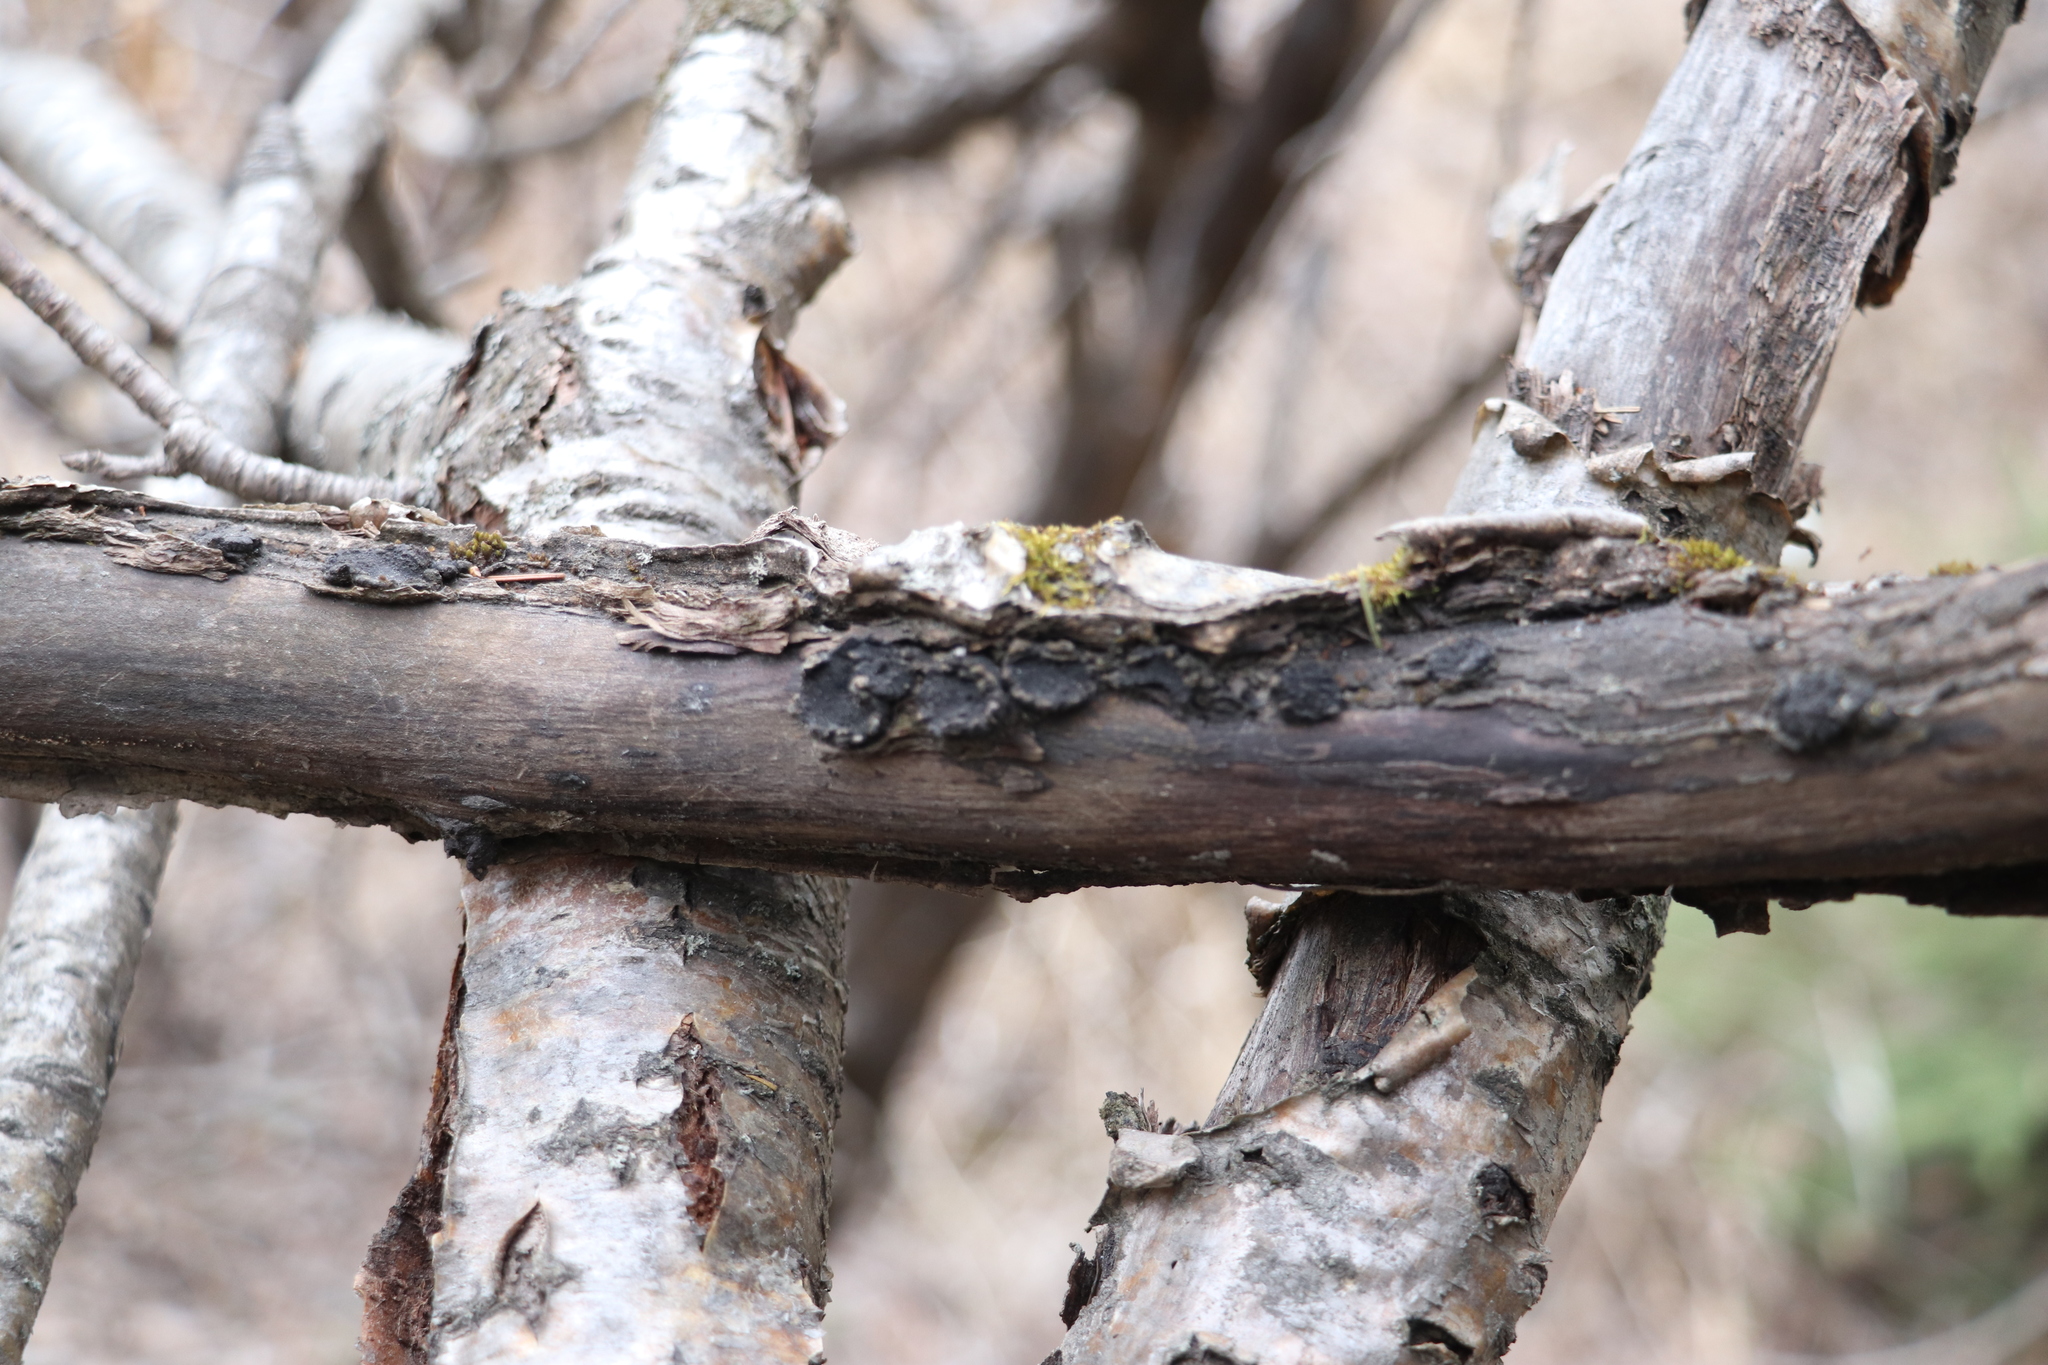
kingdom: Fungi
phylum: Ascomycota
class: Sordariomycetes
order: Xylariales
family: Graphostromataceae
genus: Biscogniauxia
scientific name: Biscogniauxia repanda
